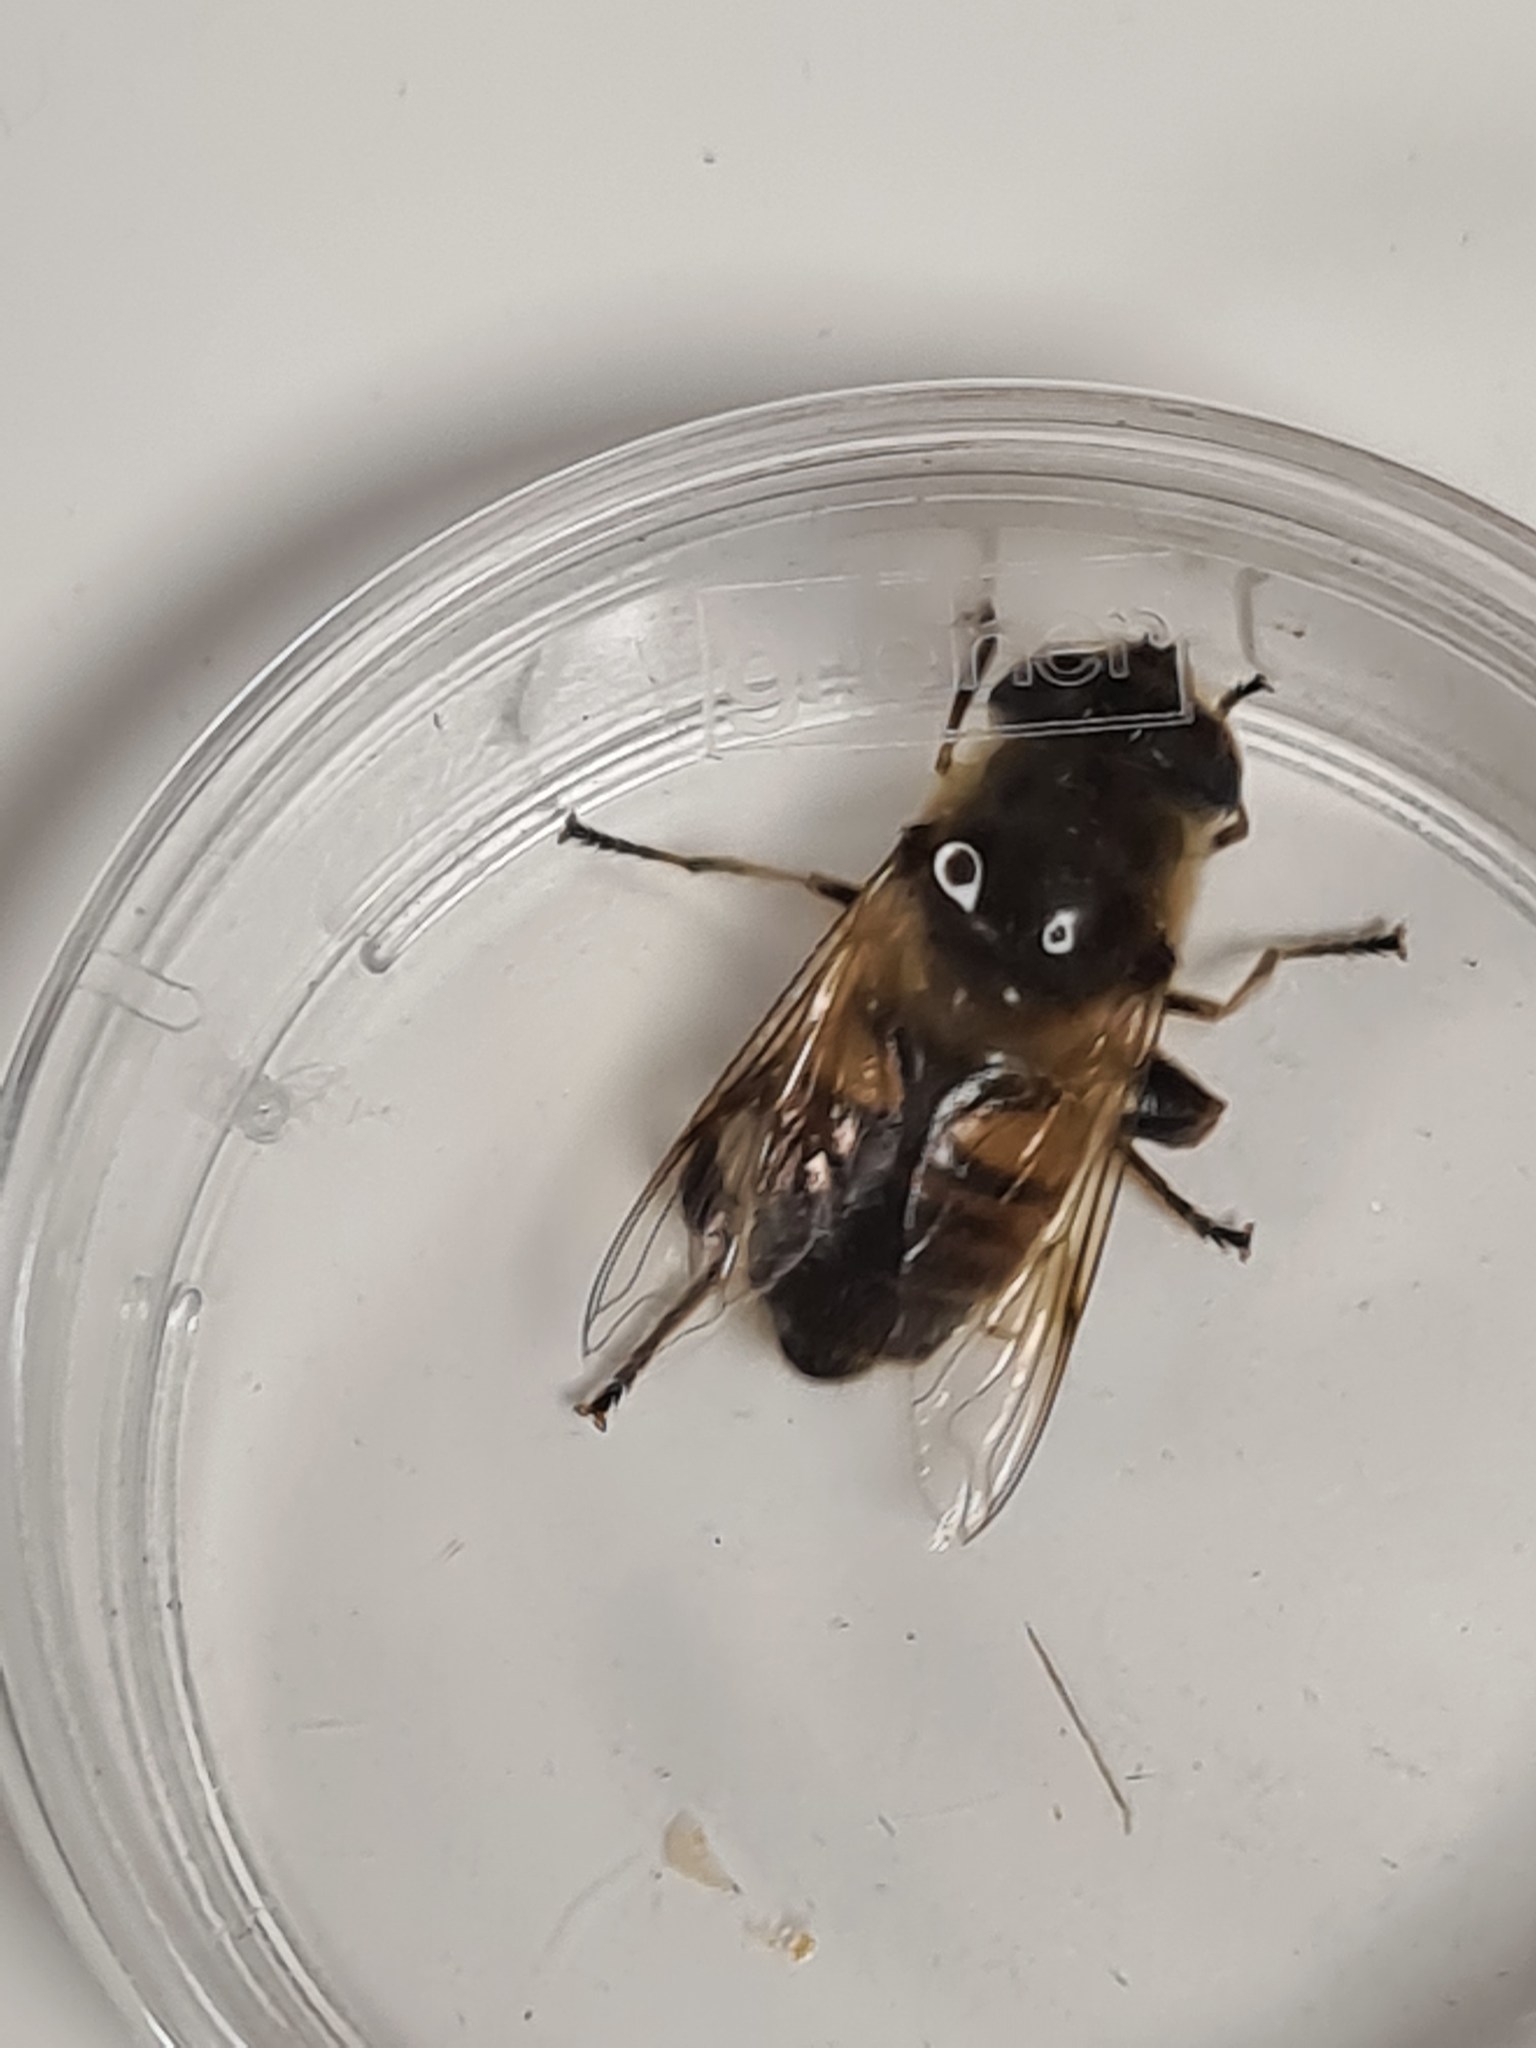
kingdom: Animalia
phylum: Arthropoda
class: Insecta
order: Diptera
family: Syrphidae
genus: Eristalis
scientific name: Eristalis tenax
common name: Drone fly
